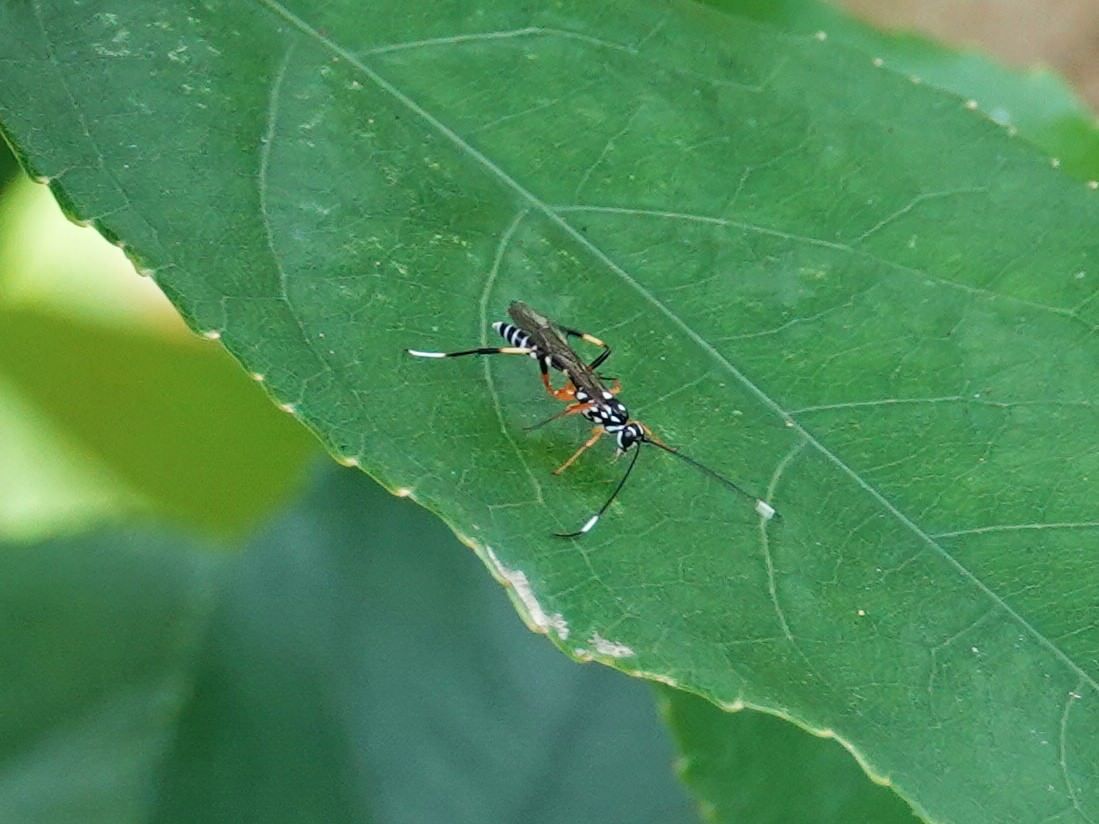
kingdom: Animalia
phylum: Arthropoda
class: Insecta
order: Hymenoptera
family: Ichneumonidae
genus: Xanthocryptus
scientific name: Xanthocryptus novozealandicus
